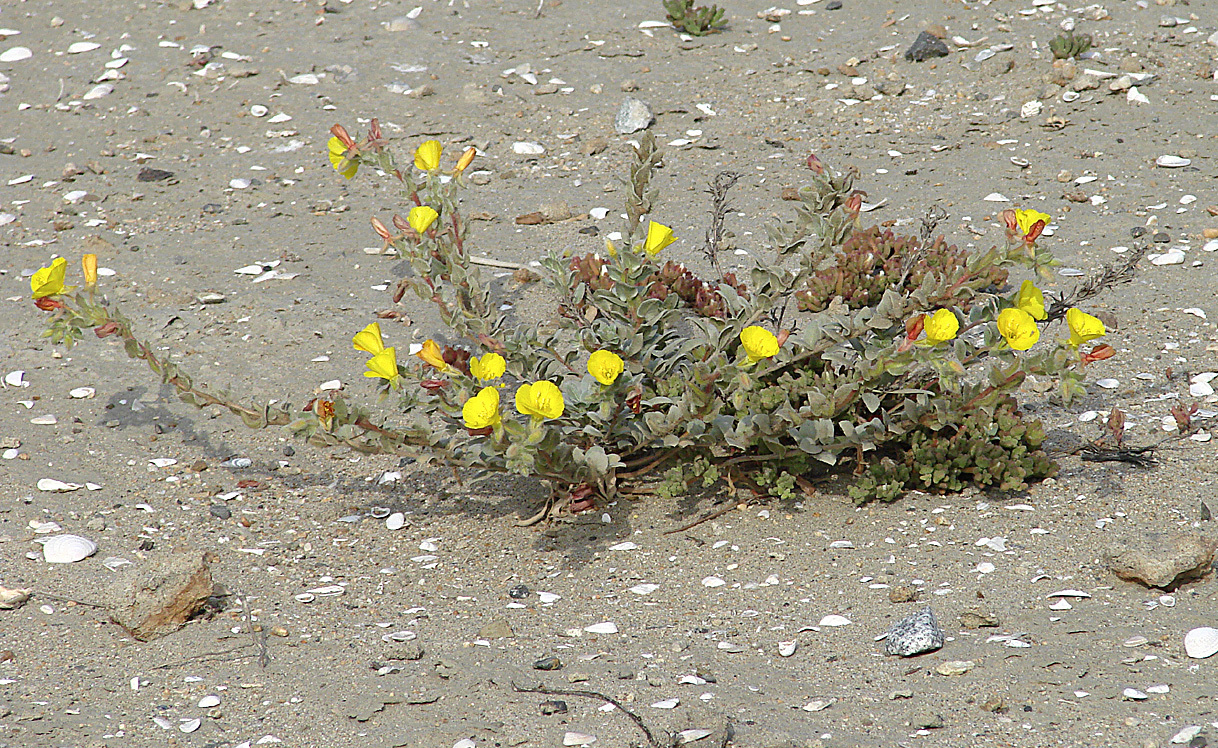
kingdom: Plantae
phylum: Tracheophyta
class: Magnoliopsida
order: Myrtales
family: Onagraceae
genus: Camissoniopsis
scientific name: Camissoniopsis cheiranthifolia
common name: Beach suncup
